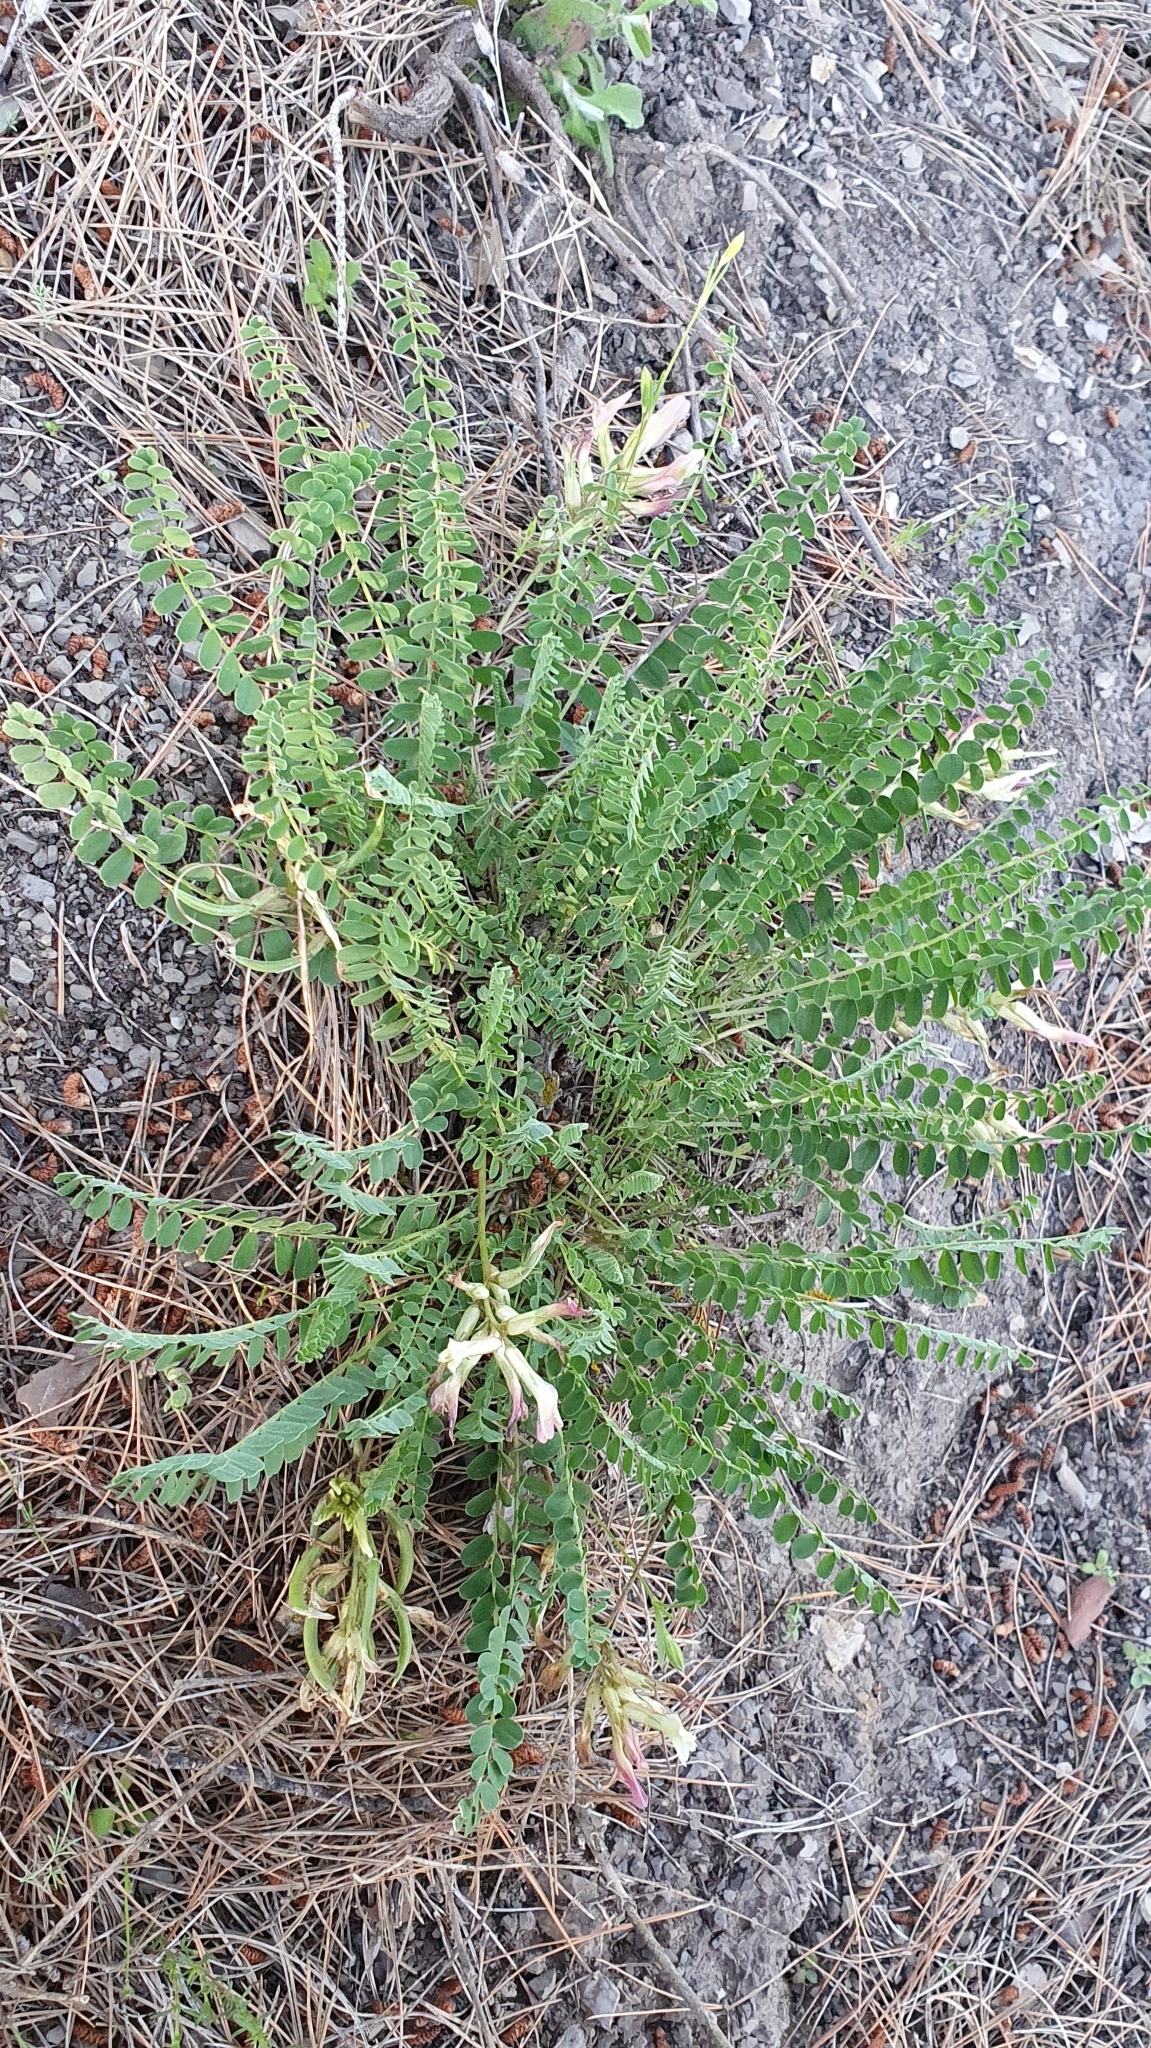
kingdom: Plantae
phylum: Tracheophyta
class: Magnoliopsida
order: Fabales
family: Fabaceae
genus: Astragalus
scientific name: Astragalus monspessulanus
